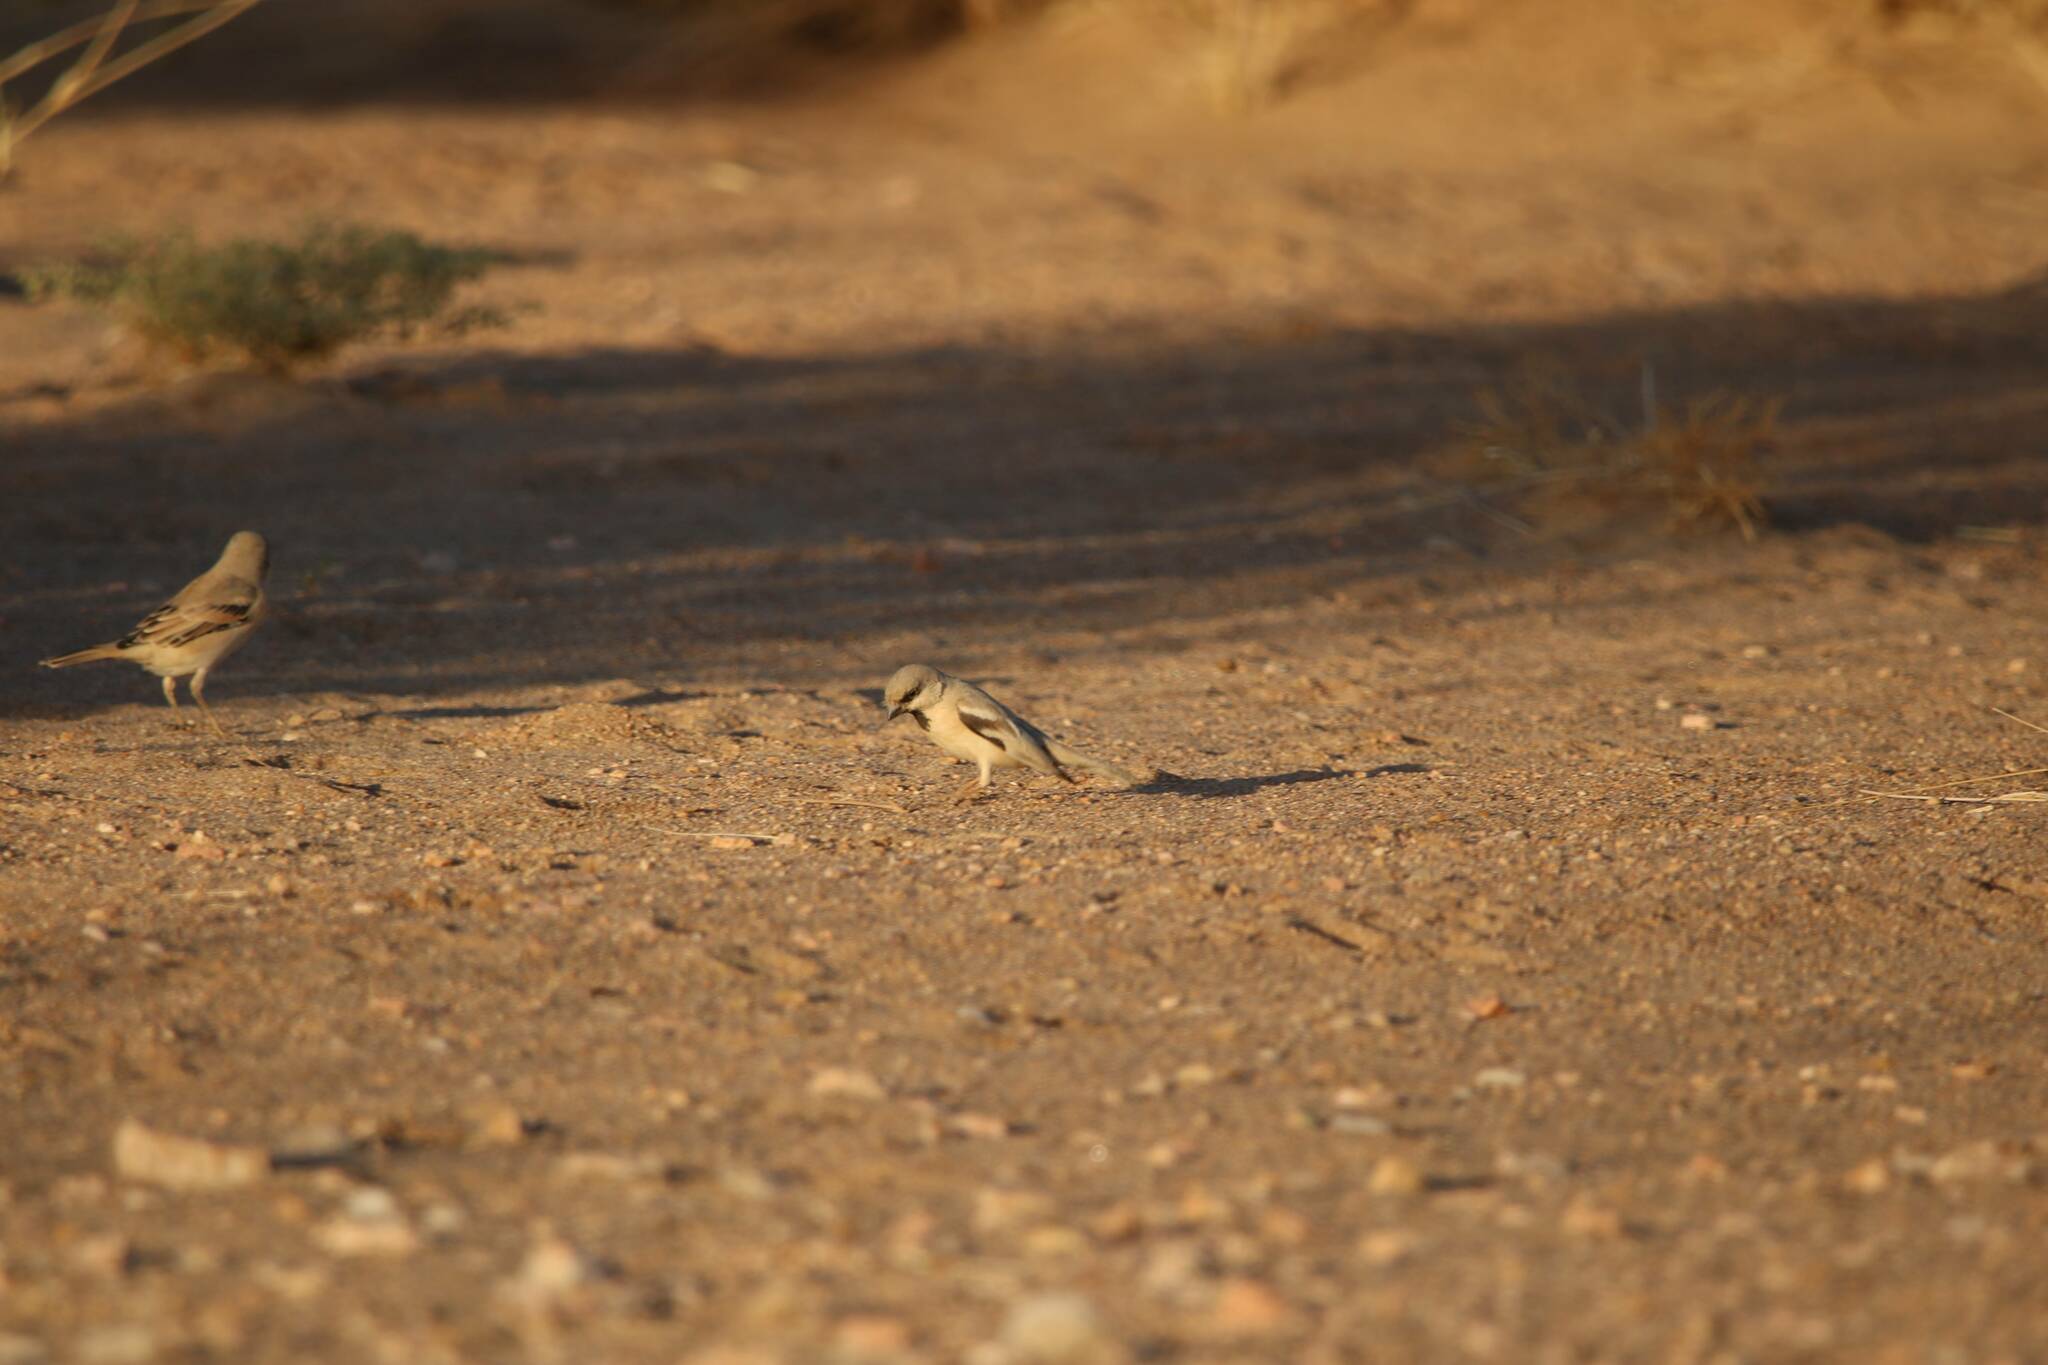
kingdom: Animalia
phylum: Chordata
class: Aves
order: Passeriformes
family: Passeridae
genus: Passer
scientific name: Passer simplex
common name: Desert sparrow
